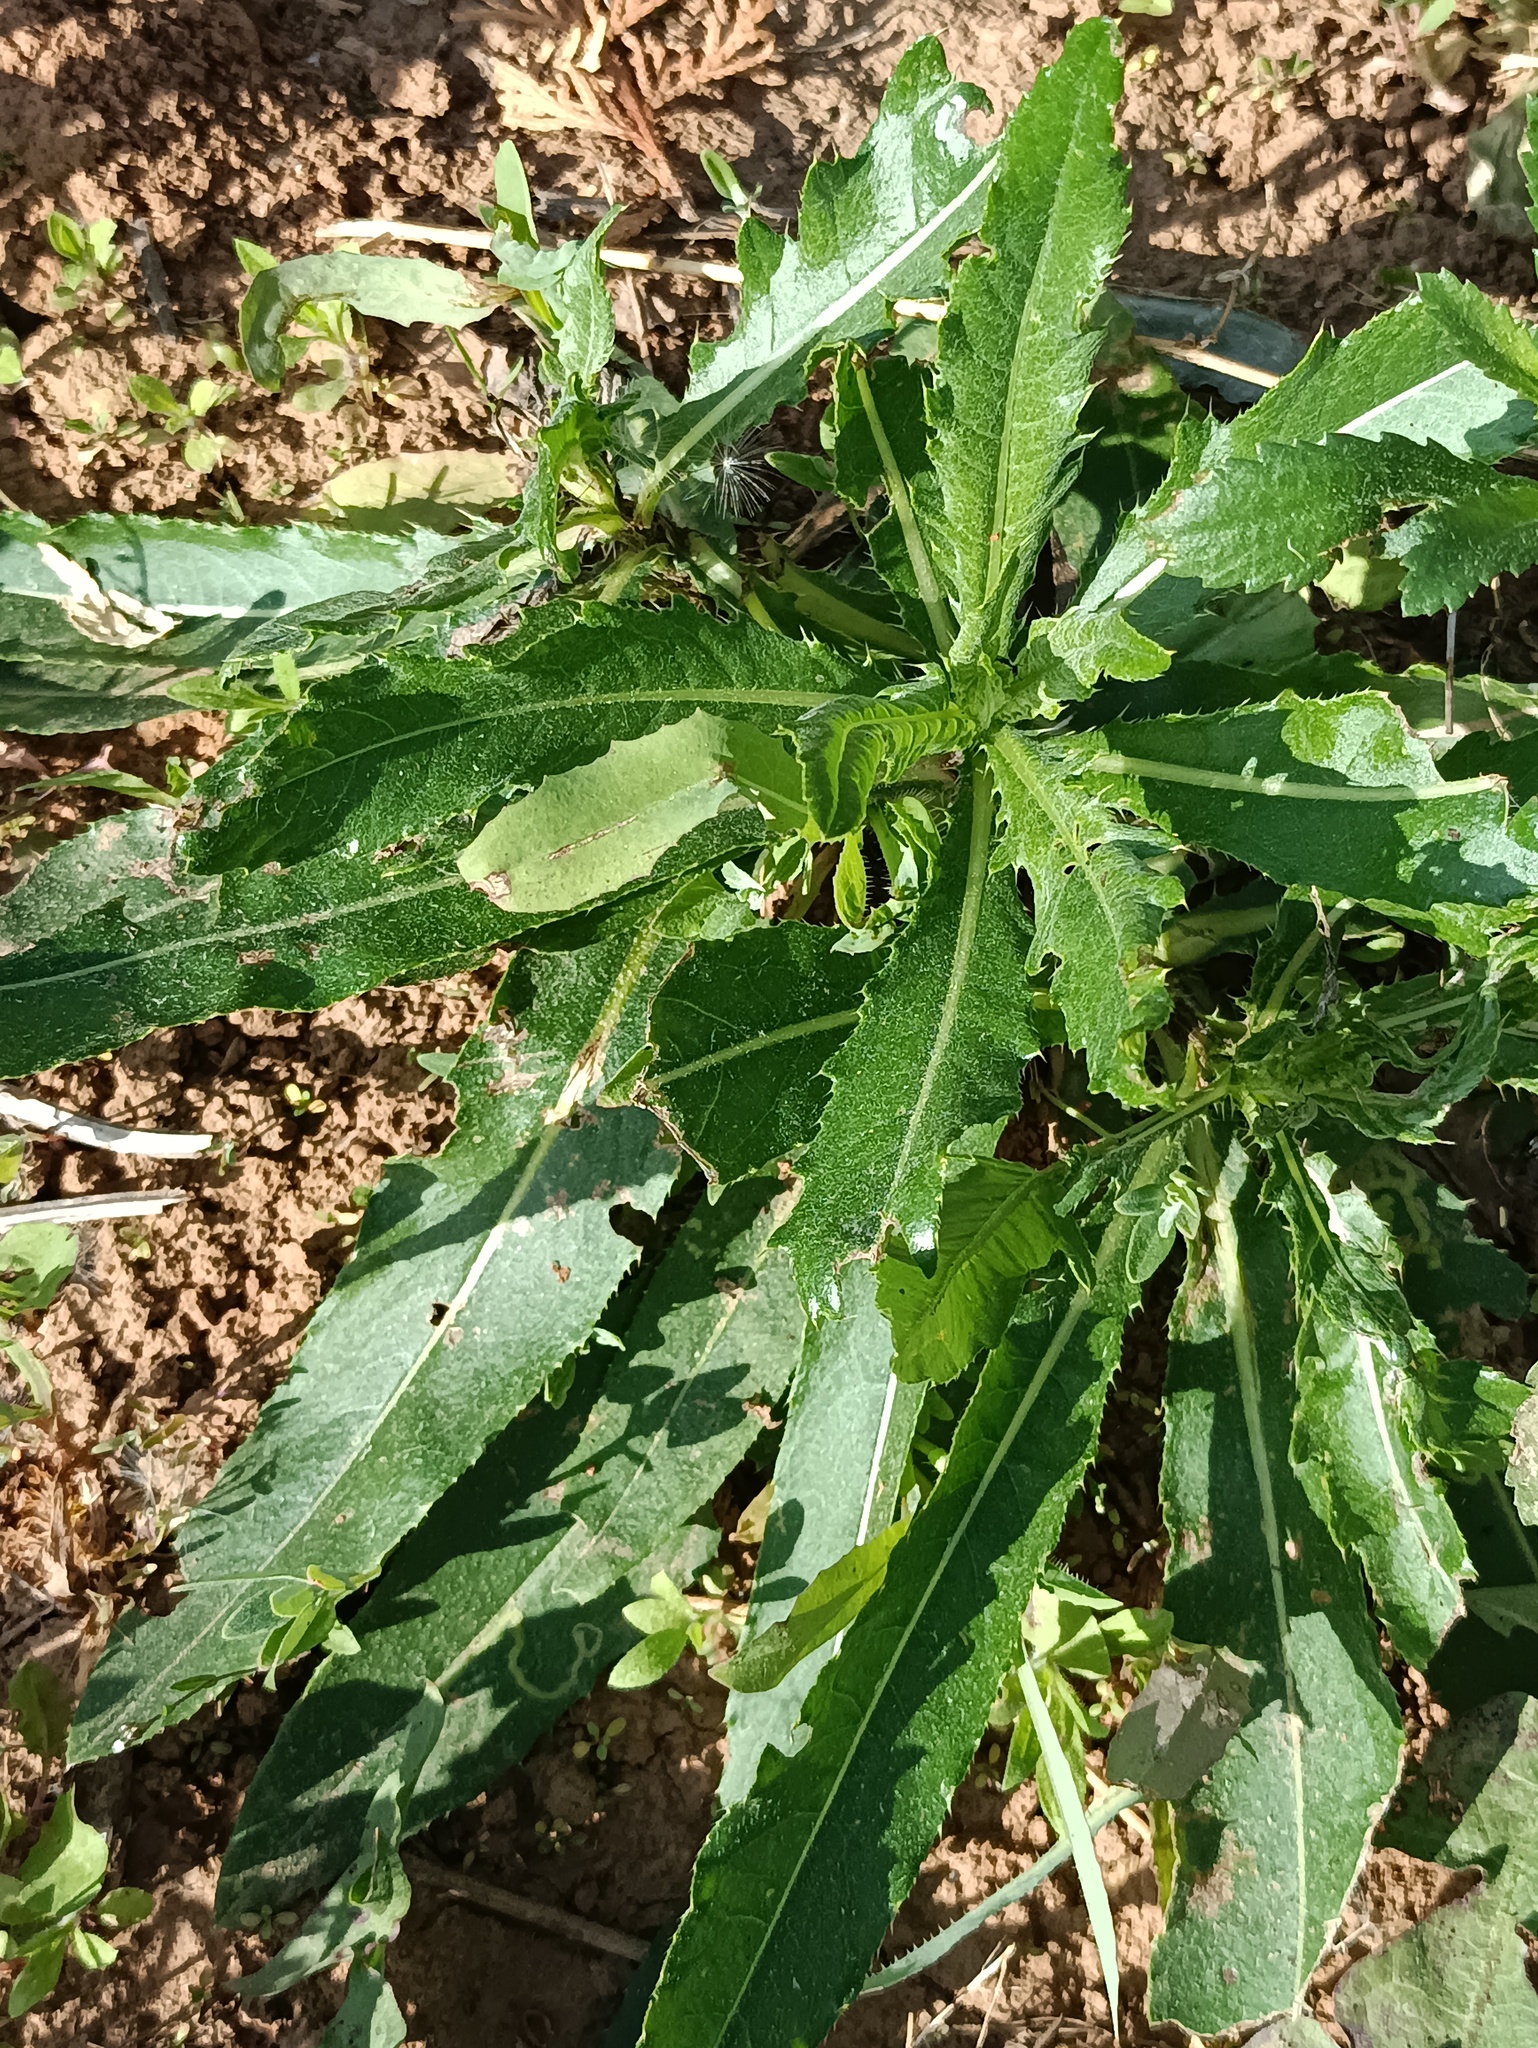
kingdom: Plantae
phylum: Tracheophyta
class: Magnoliopsida
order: Asterales
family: Asteraceae
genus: Cirsium
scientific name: Cirsium arvense
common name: Creeping thistle
